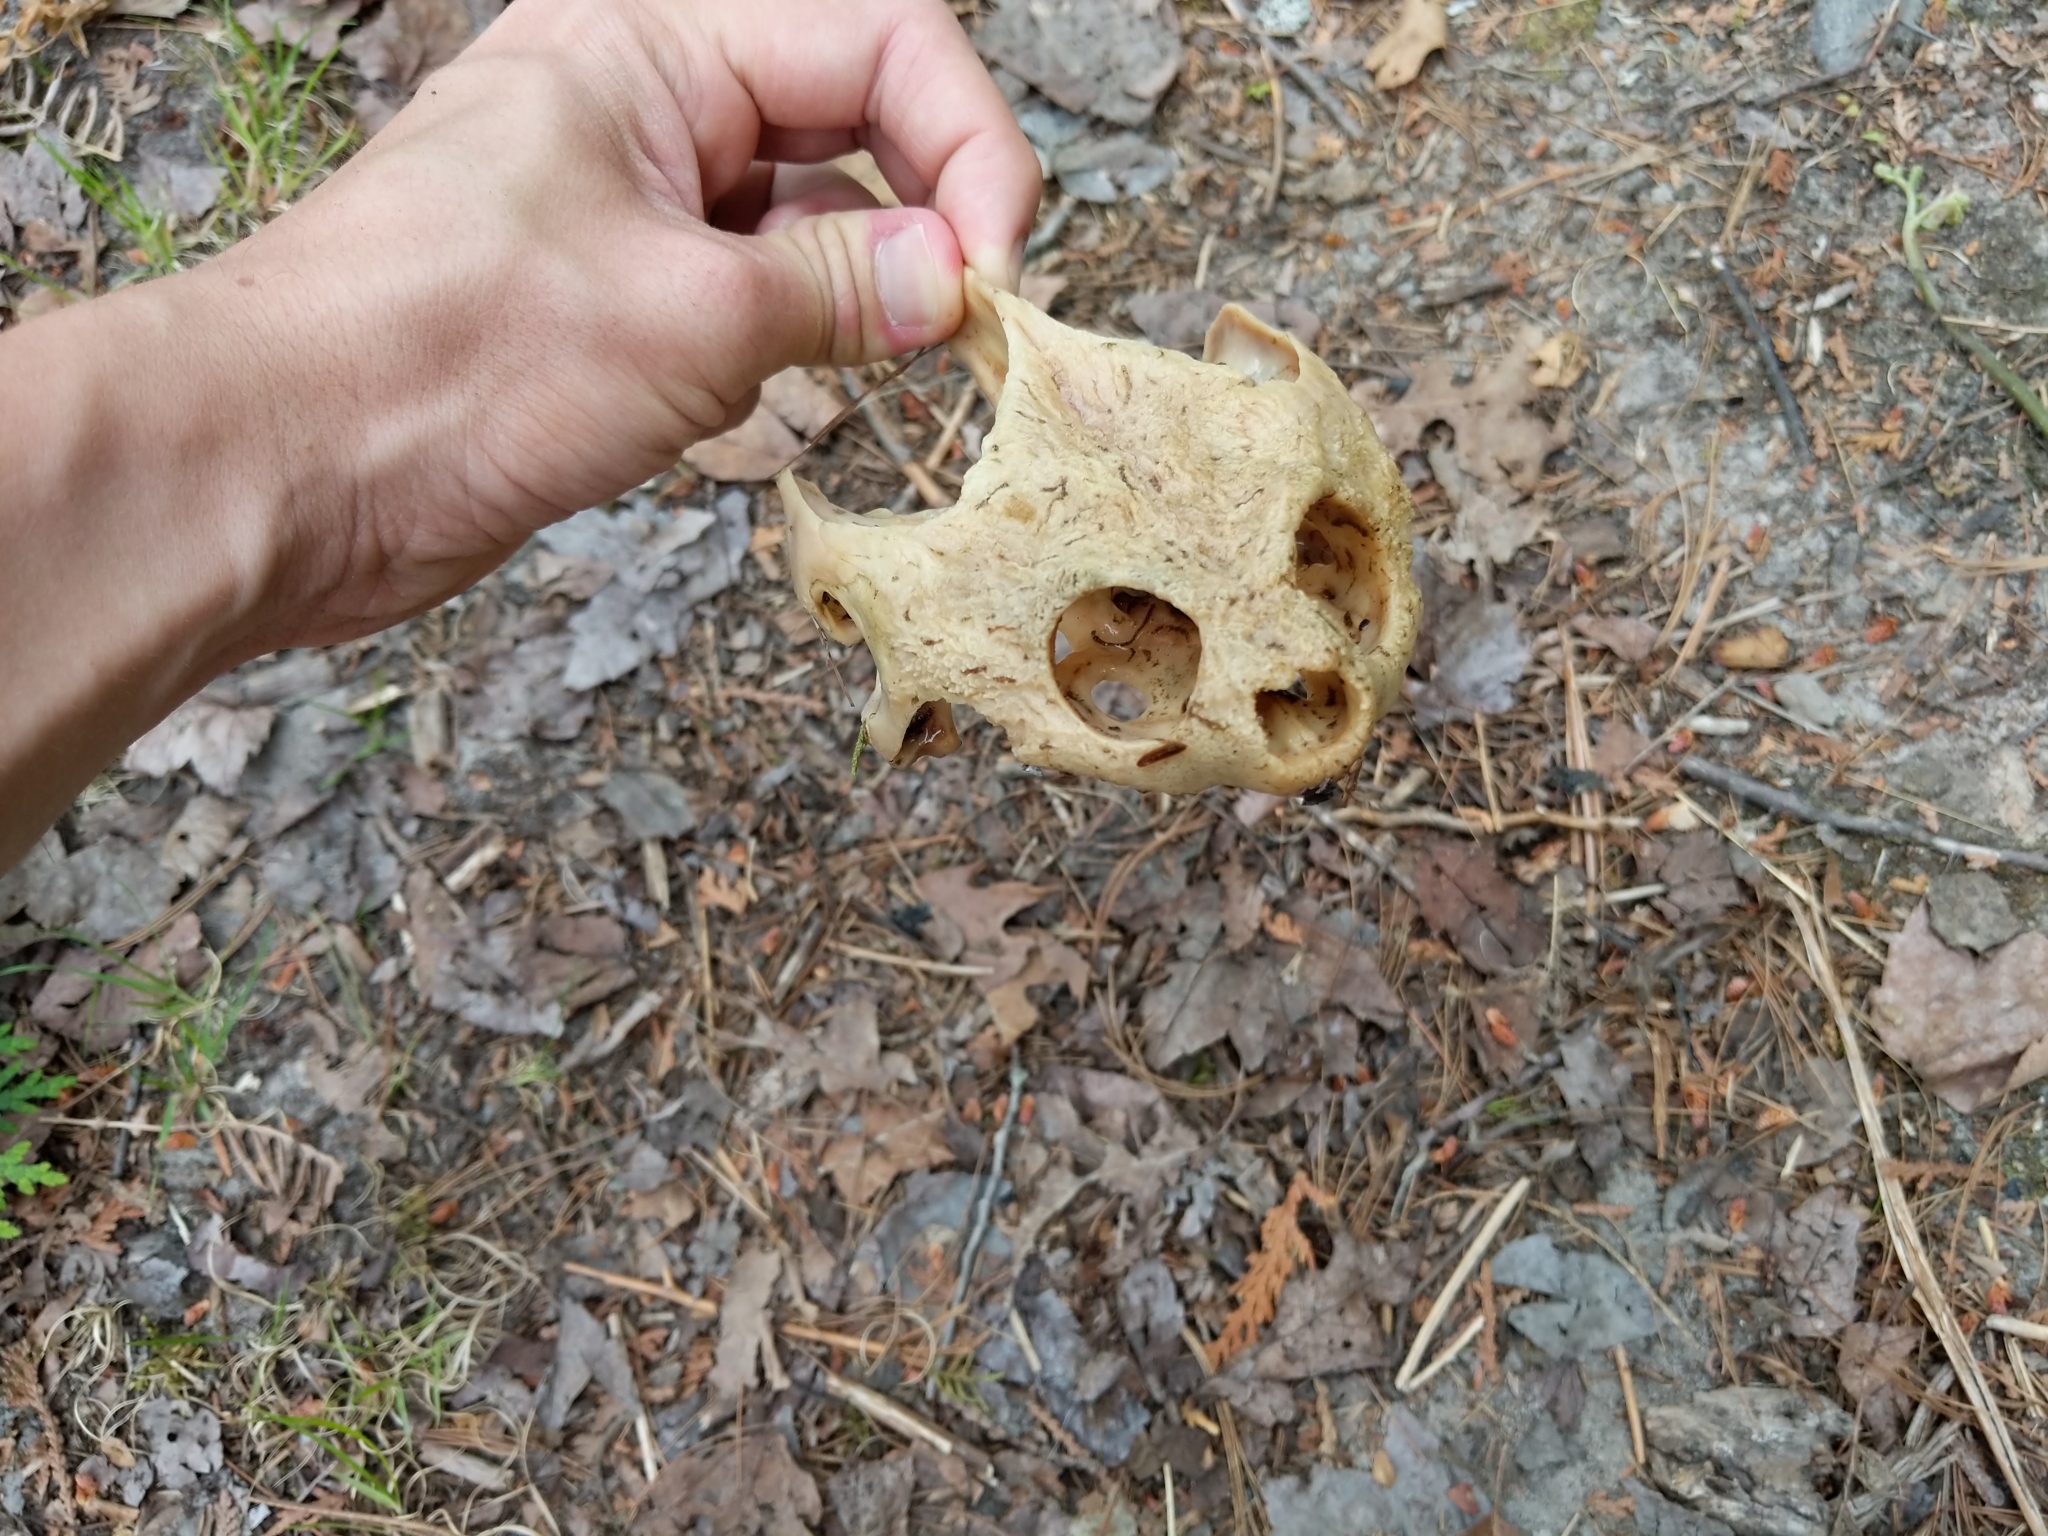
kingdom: Animalia
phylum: Chordata
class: Testudines
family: Chelydridae
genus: Chelydra
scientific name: Chelydra serpentina
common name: Common snapping turtle
